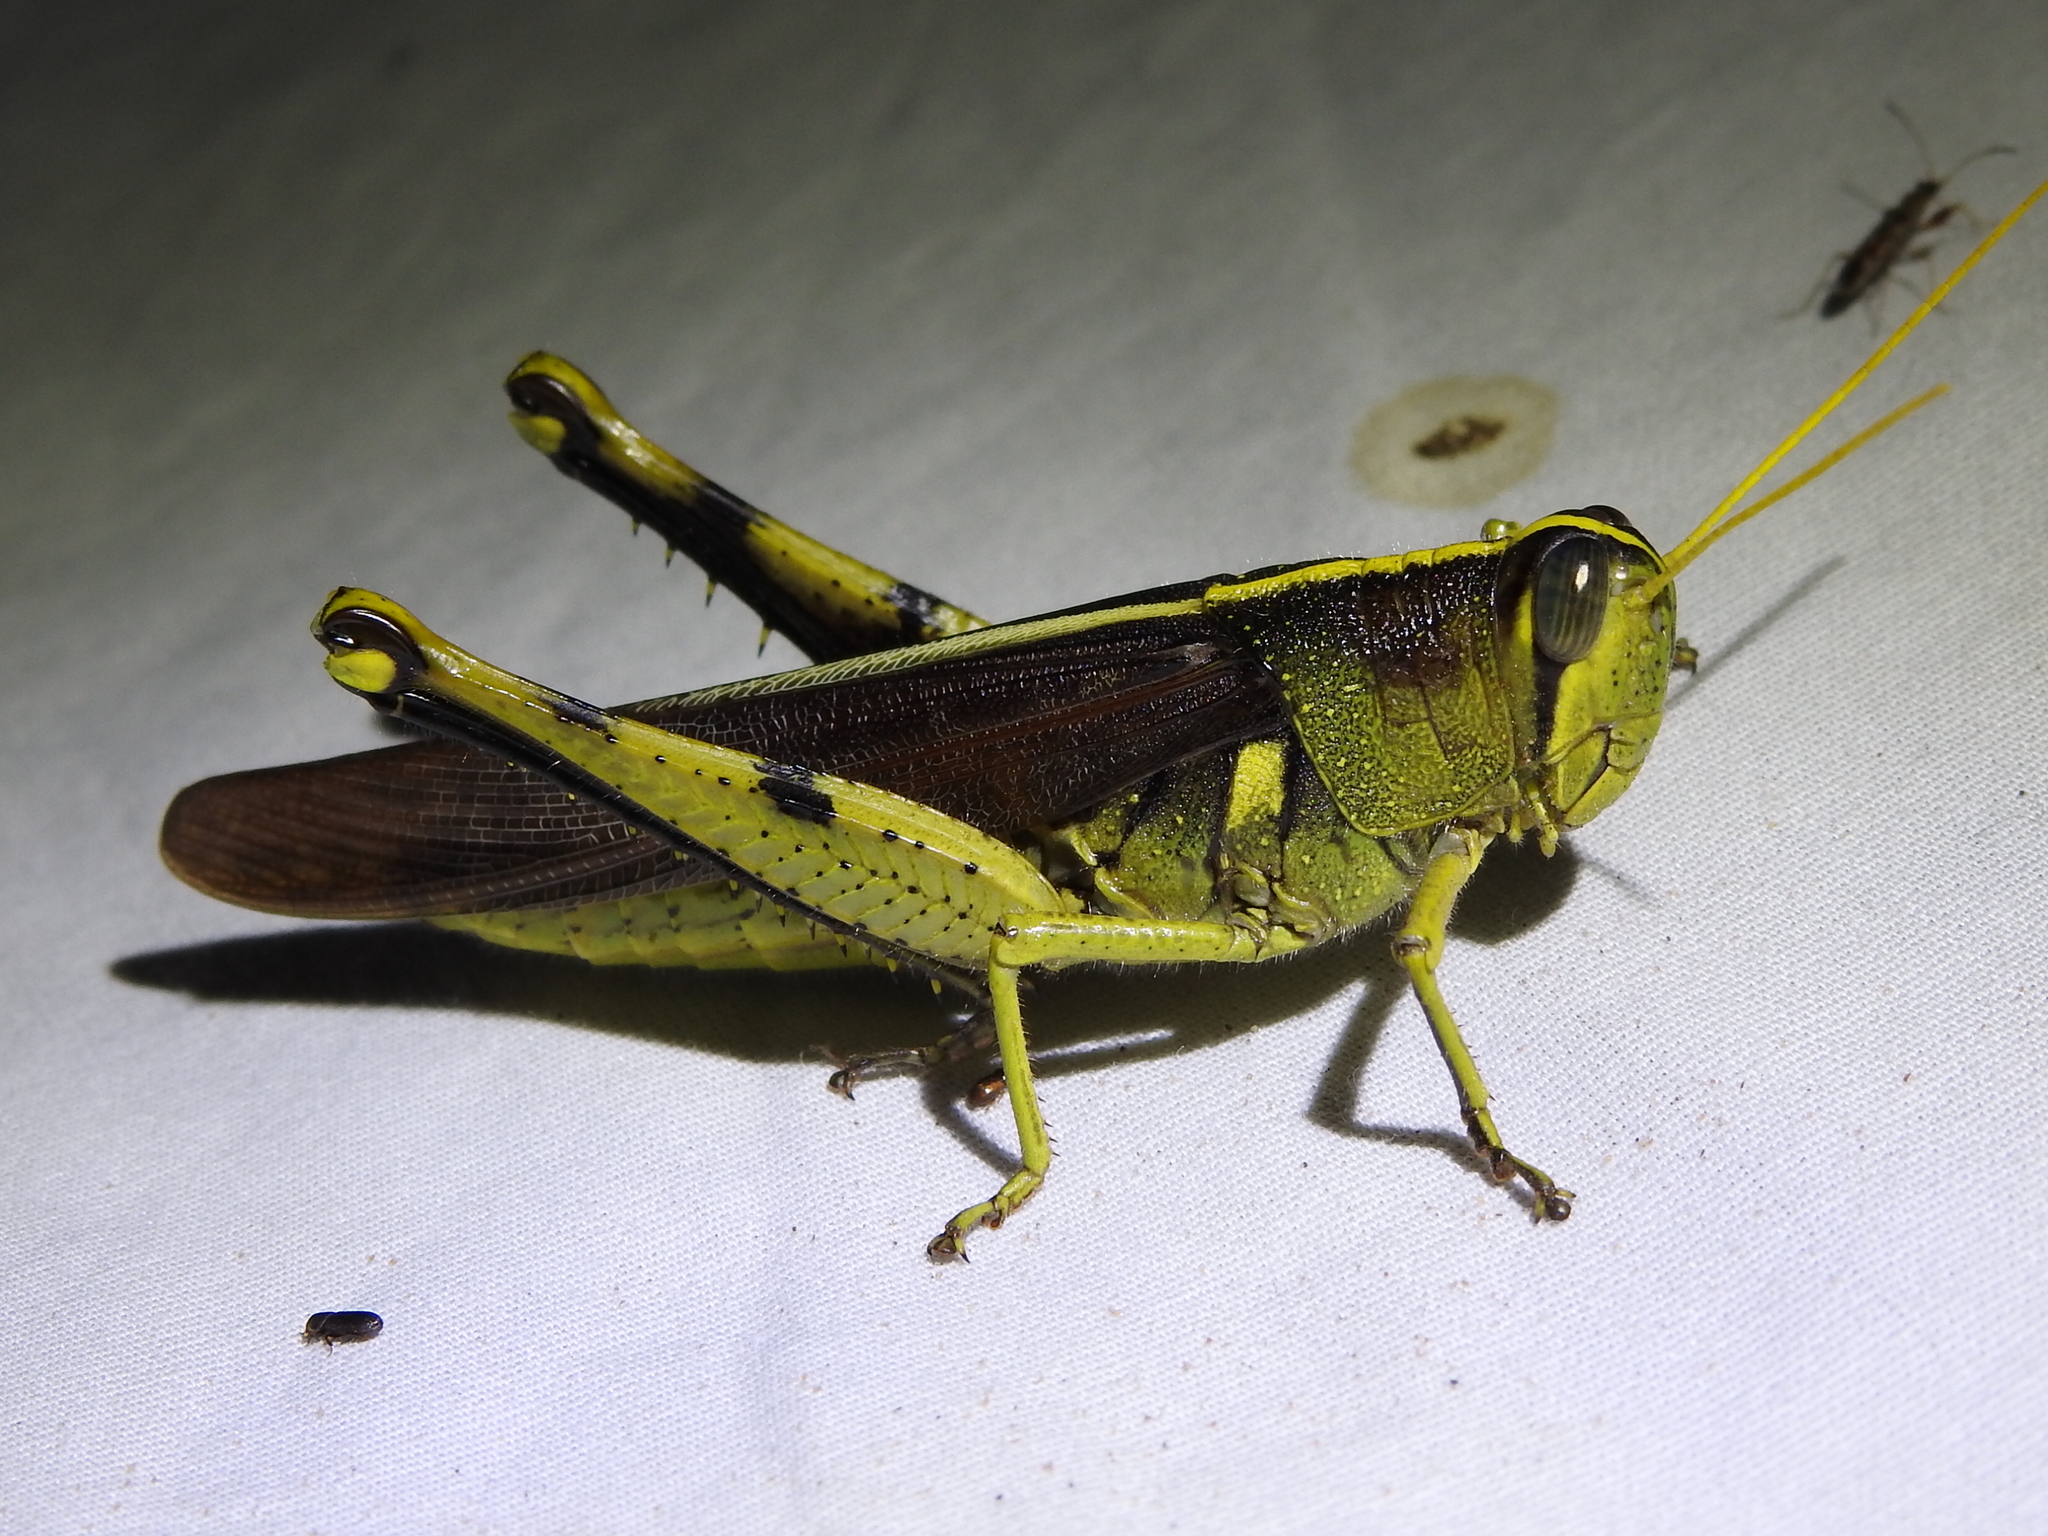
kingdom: Animalia
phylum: Arthropoda
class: Insecta
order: Orthoptera
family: Acrididae
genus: Schistocerca
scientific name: Schistocerca obscura
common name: Obscure bird grasshopper
